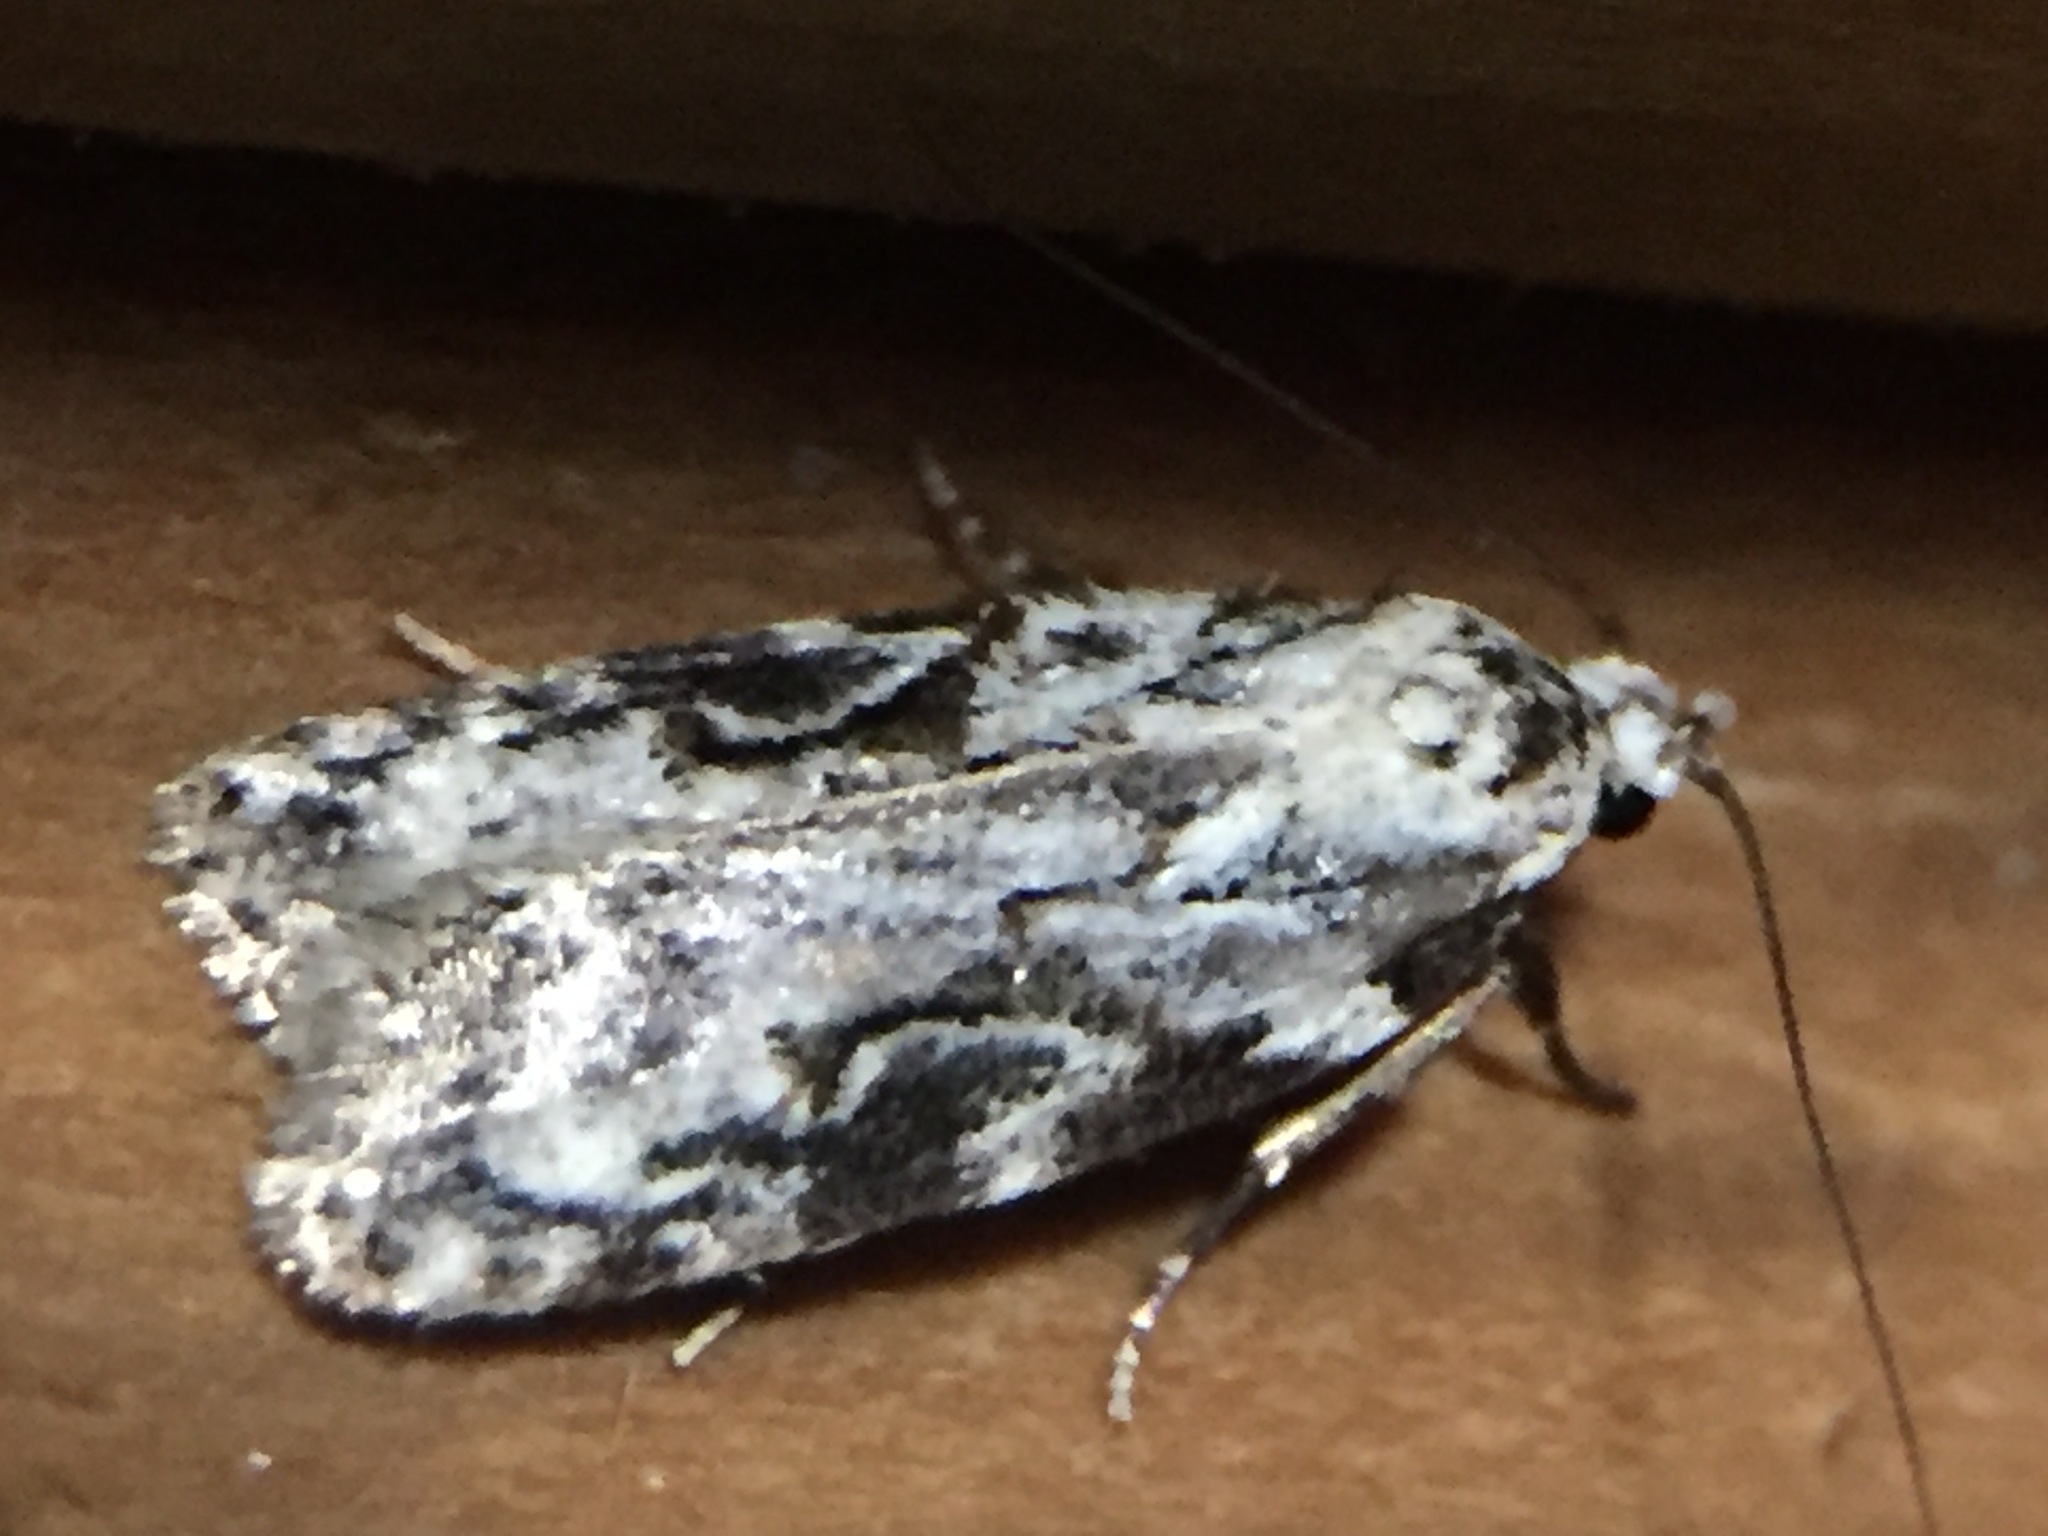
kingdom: Animalia
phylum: Arthropoda
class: Insecta
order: Lepidoptera
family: Oecophoridae
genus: Izatha
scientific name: Izatha mesoschista
